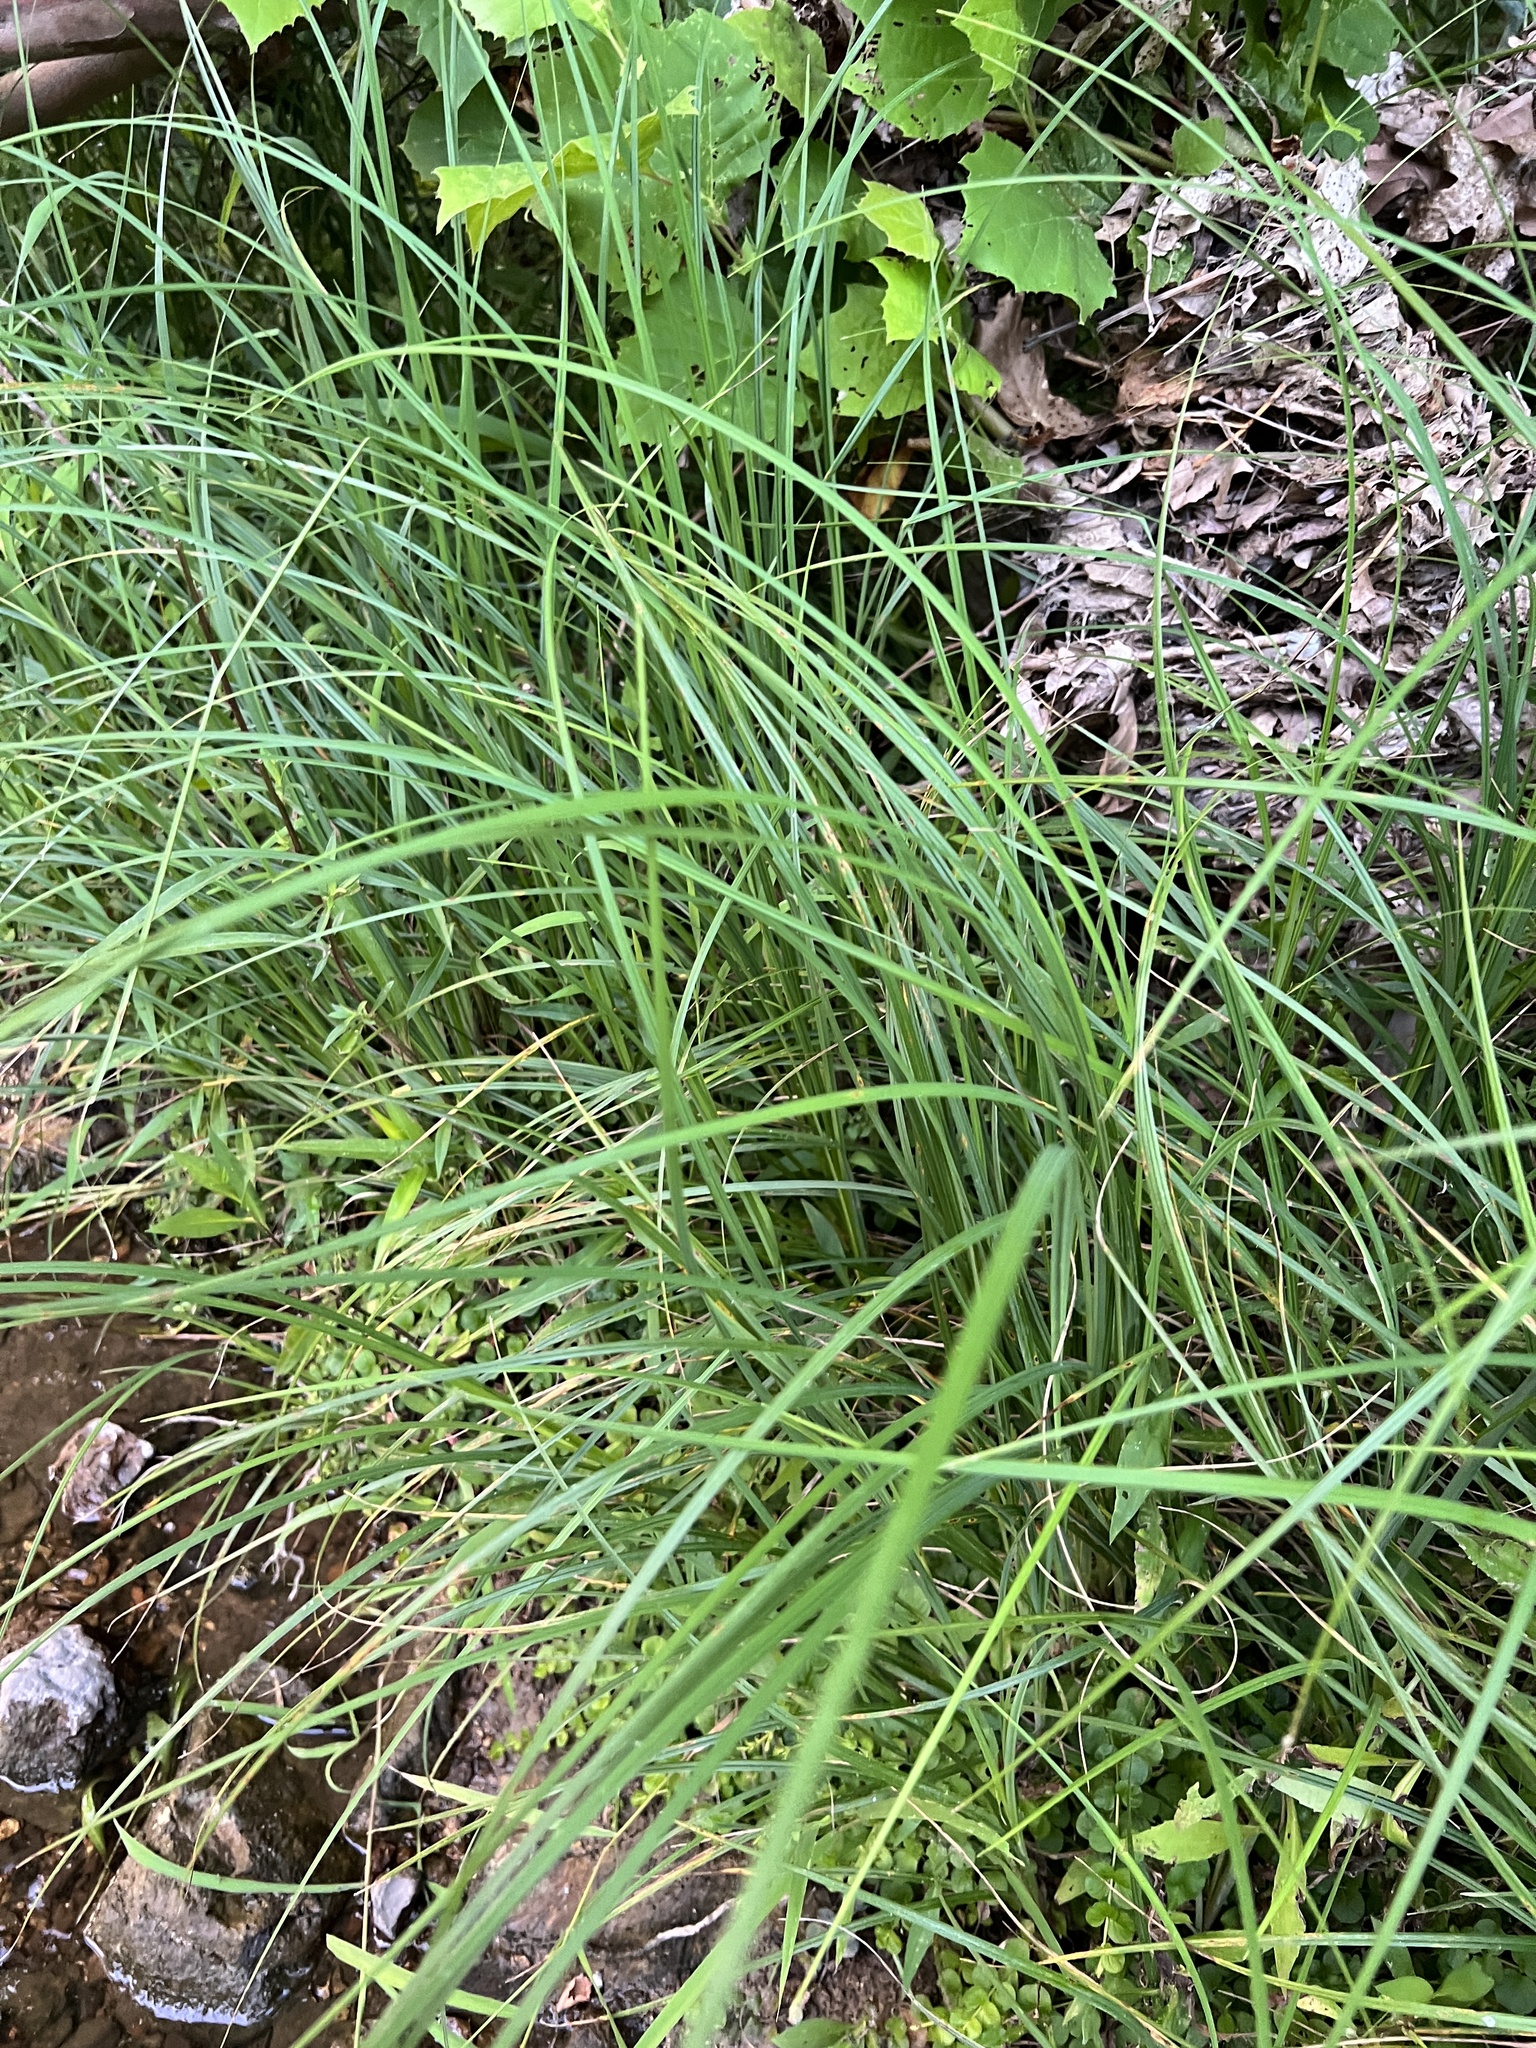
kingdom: Plantae
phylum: Tracheophyta
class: Liliopsida
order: Poales
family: Cyperaceae
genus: Carex
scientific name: Carex torta
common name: Twisted sedge
